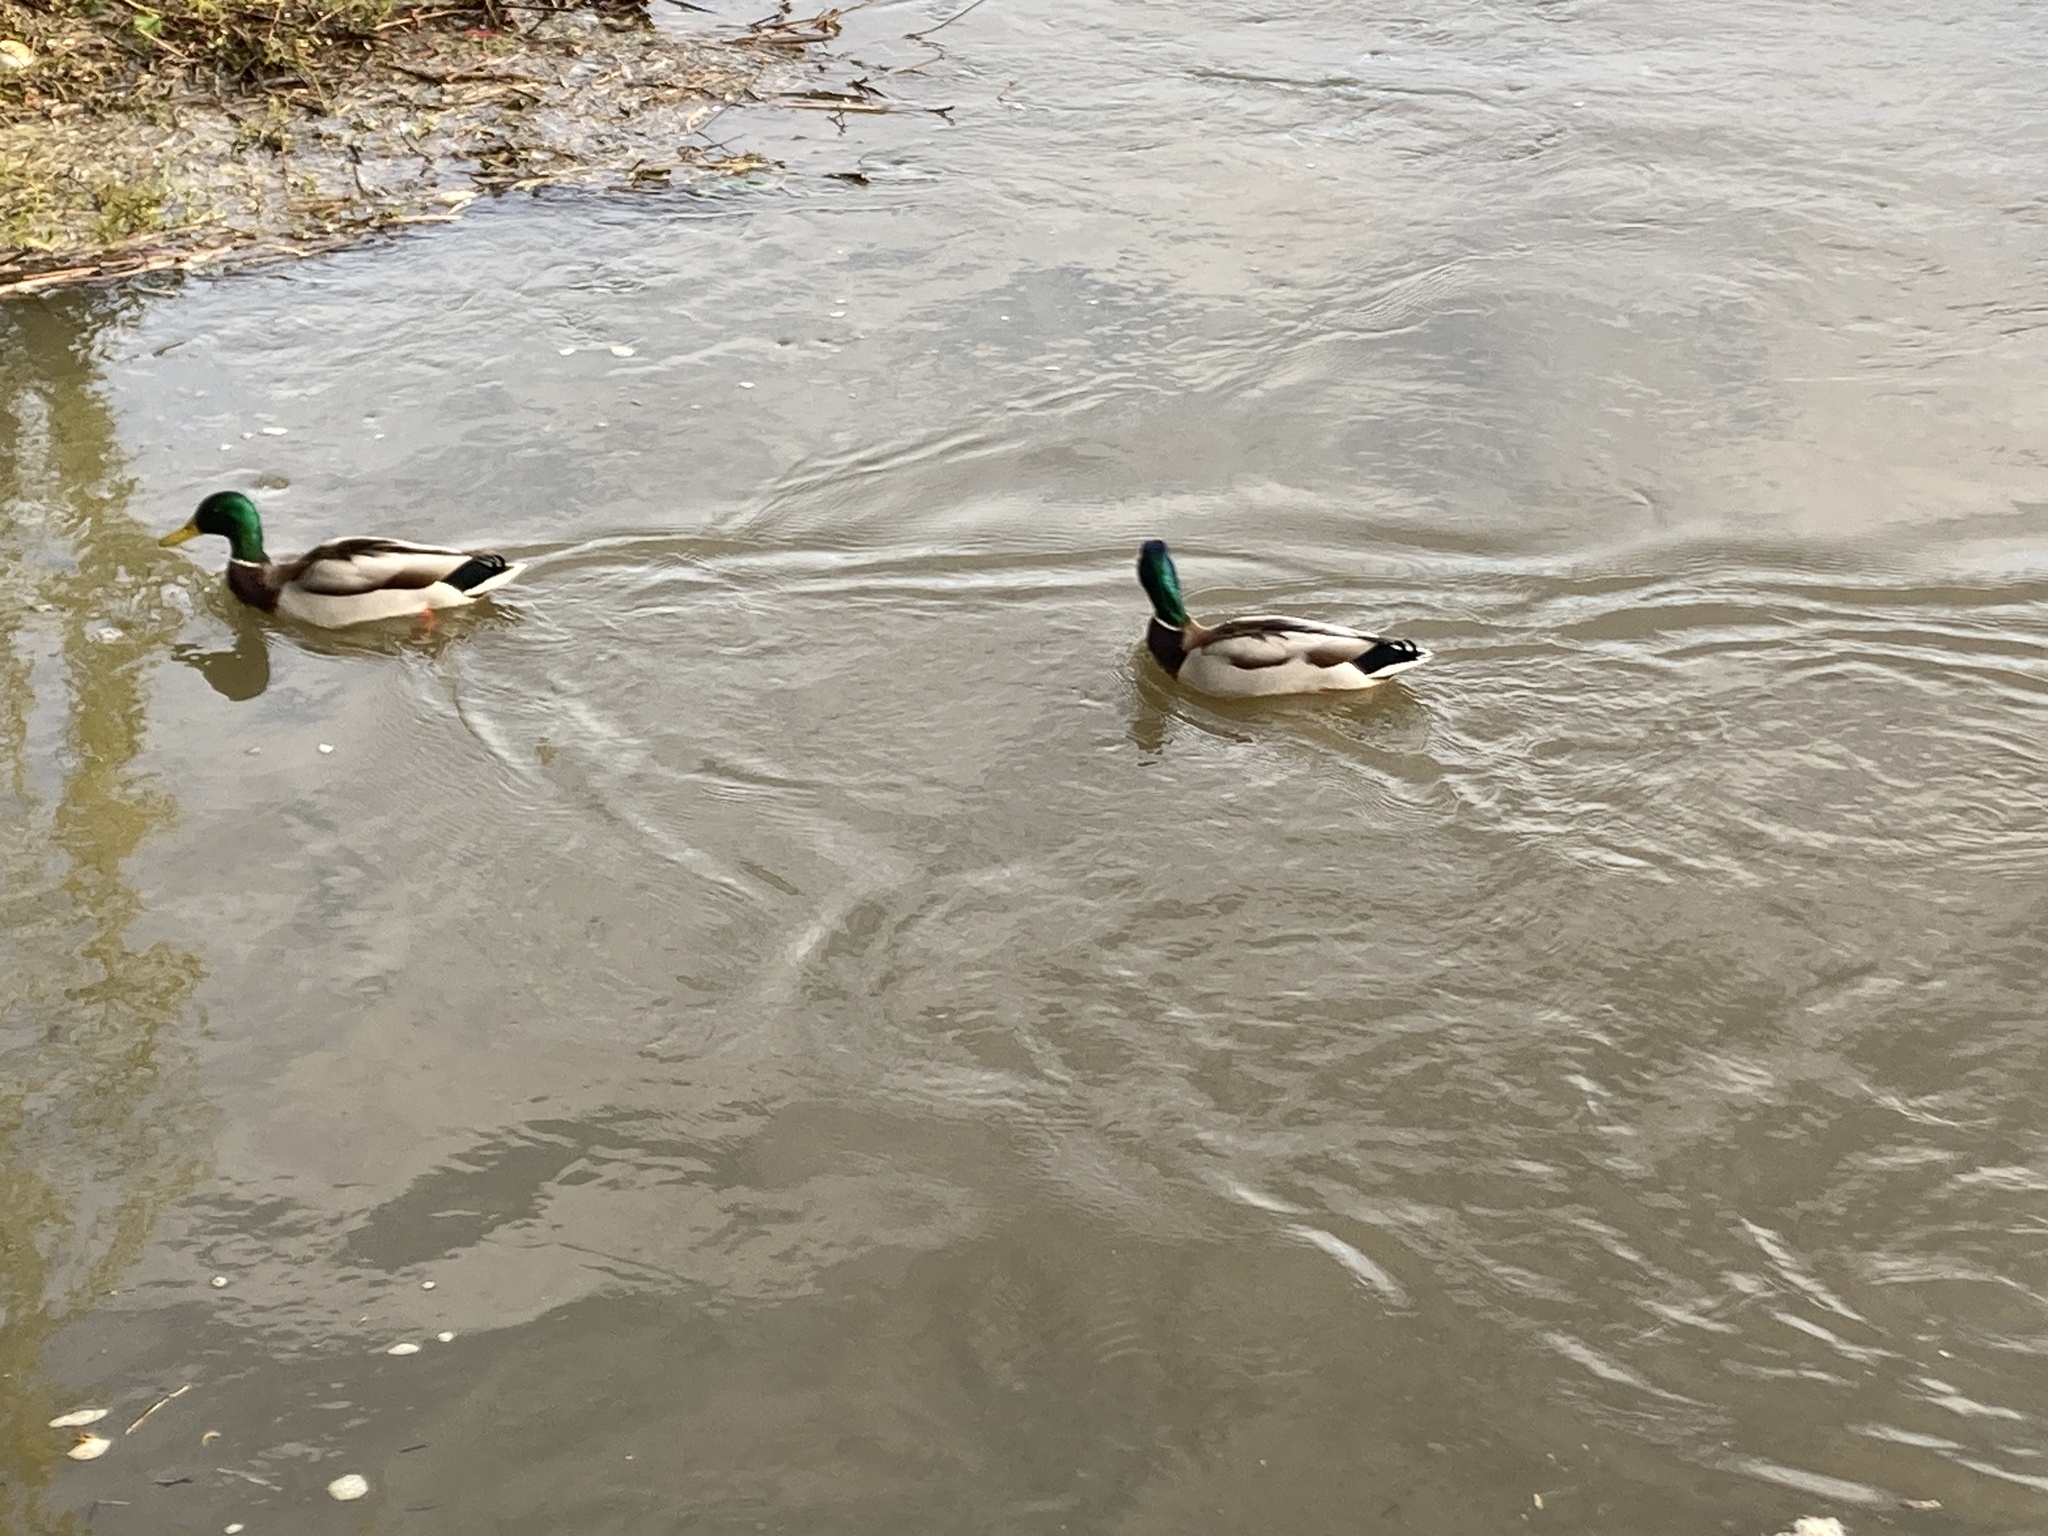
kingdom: Animalia
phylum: Chordata
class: Aves
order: Anseriformes
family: Anatidae
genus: Anas
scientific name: Anas platyrhynchos
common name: Mallard
